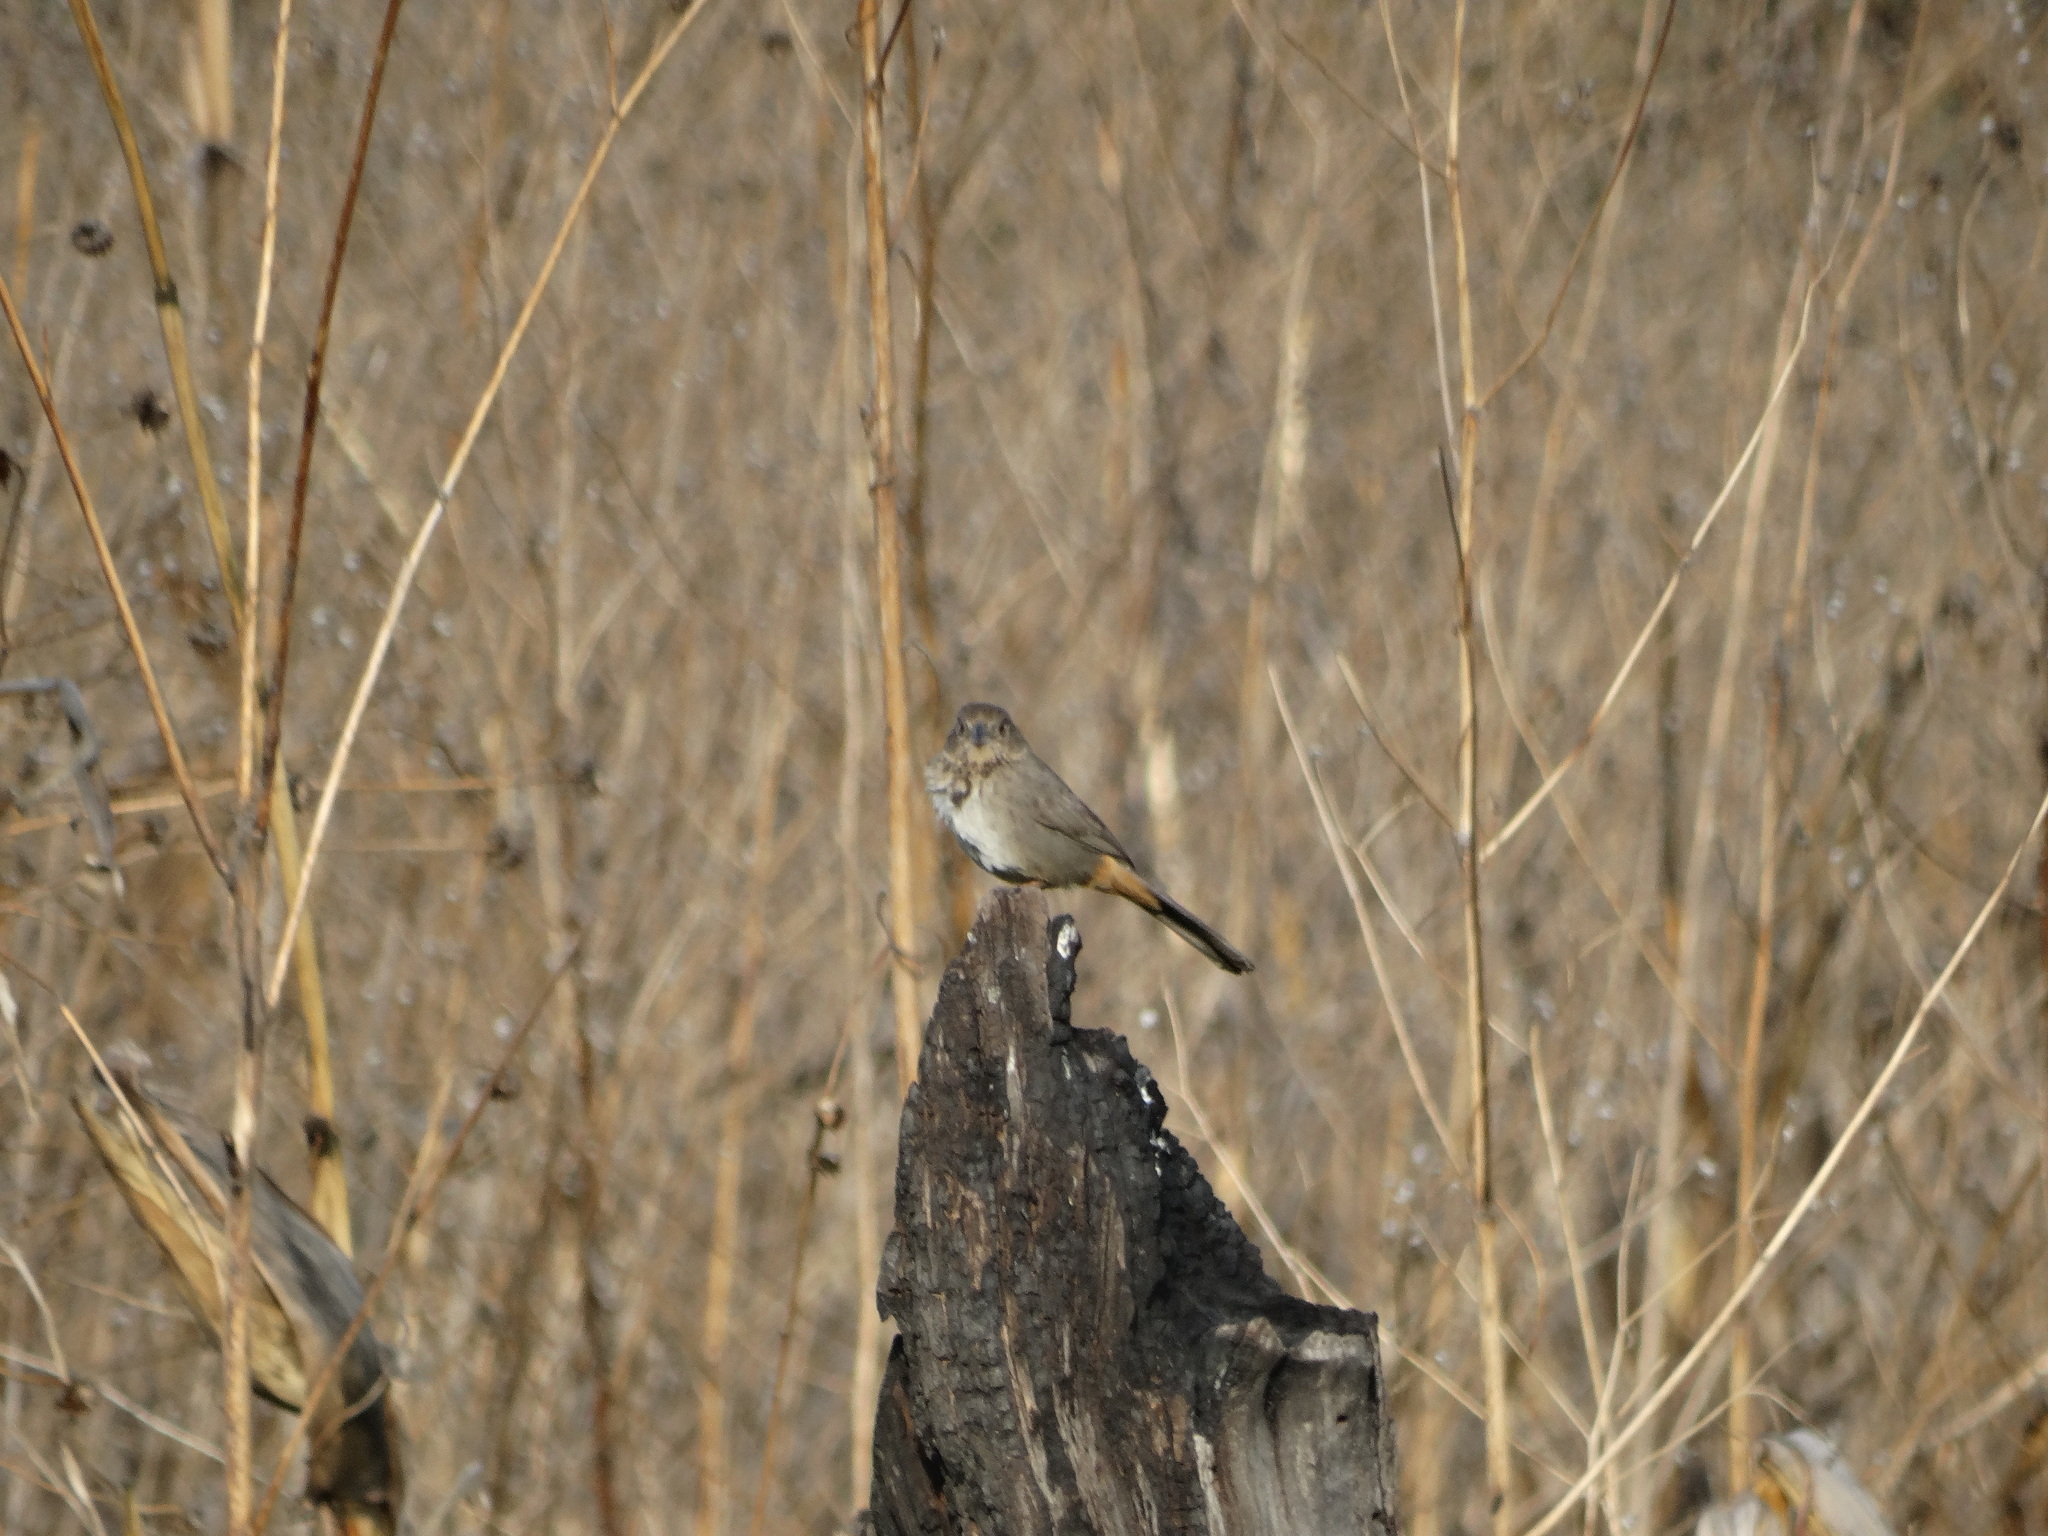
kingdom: Animalia
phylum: Chordata
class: Aves
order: Passeriformes
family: Passerellidae
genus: Melozone
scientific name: Melozone fusca
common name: Canyon towhee
